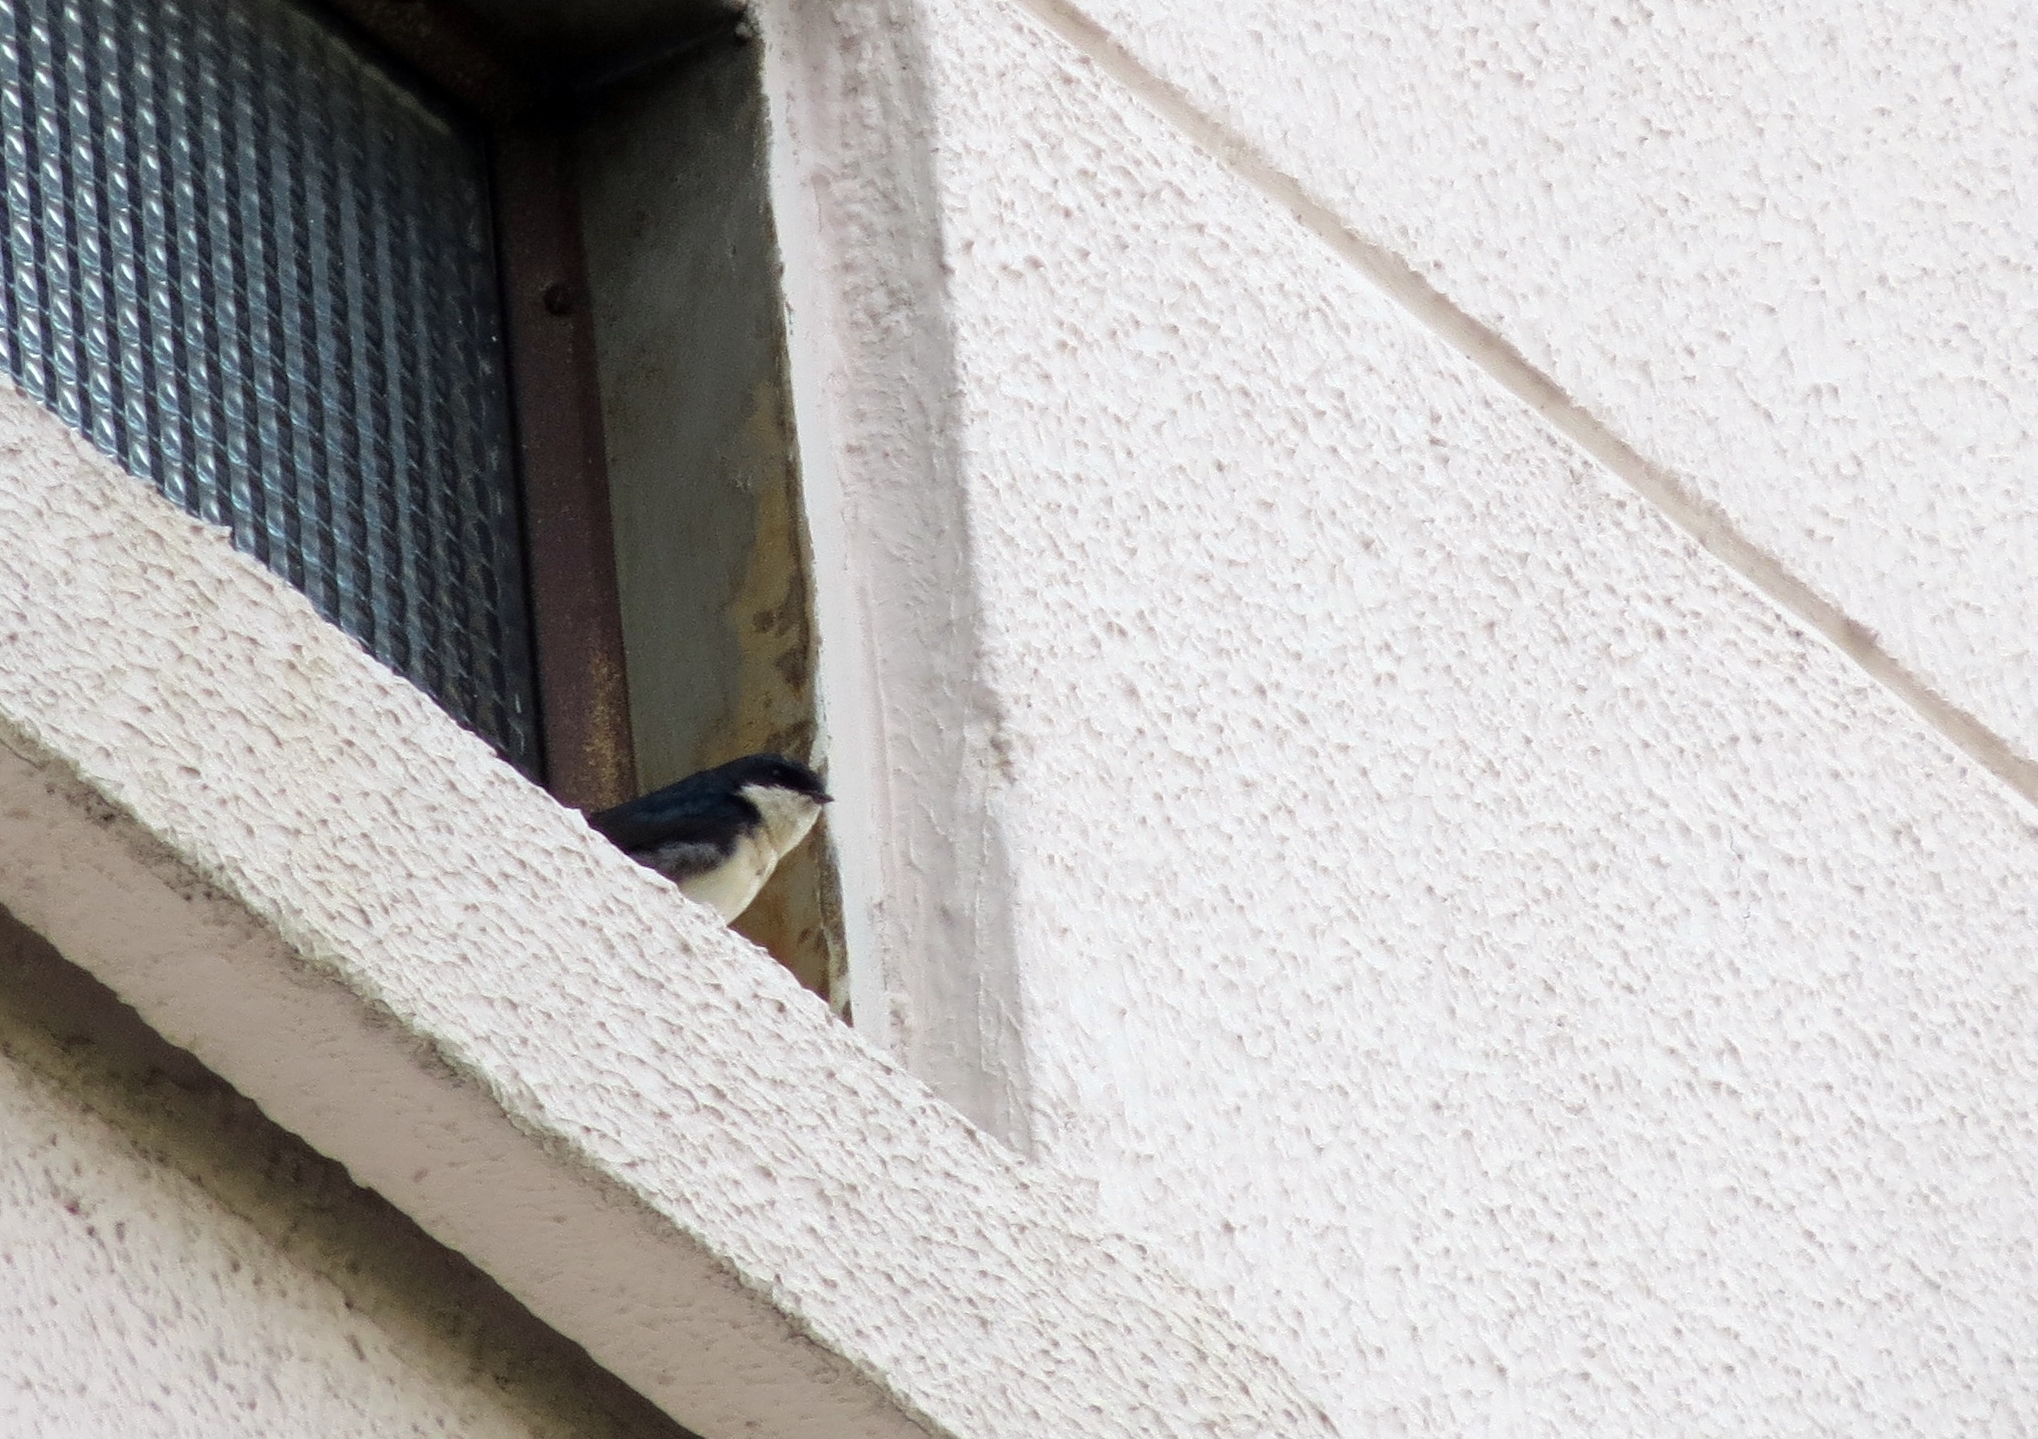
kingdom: Animalia
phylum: Chordata
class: Aves
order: Passeriformes
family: Hirundinidae
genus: Notiochelidon
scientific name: Notiochelidon cyanoleuca
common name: Blue-and-white swallow
